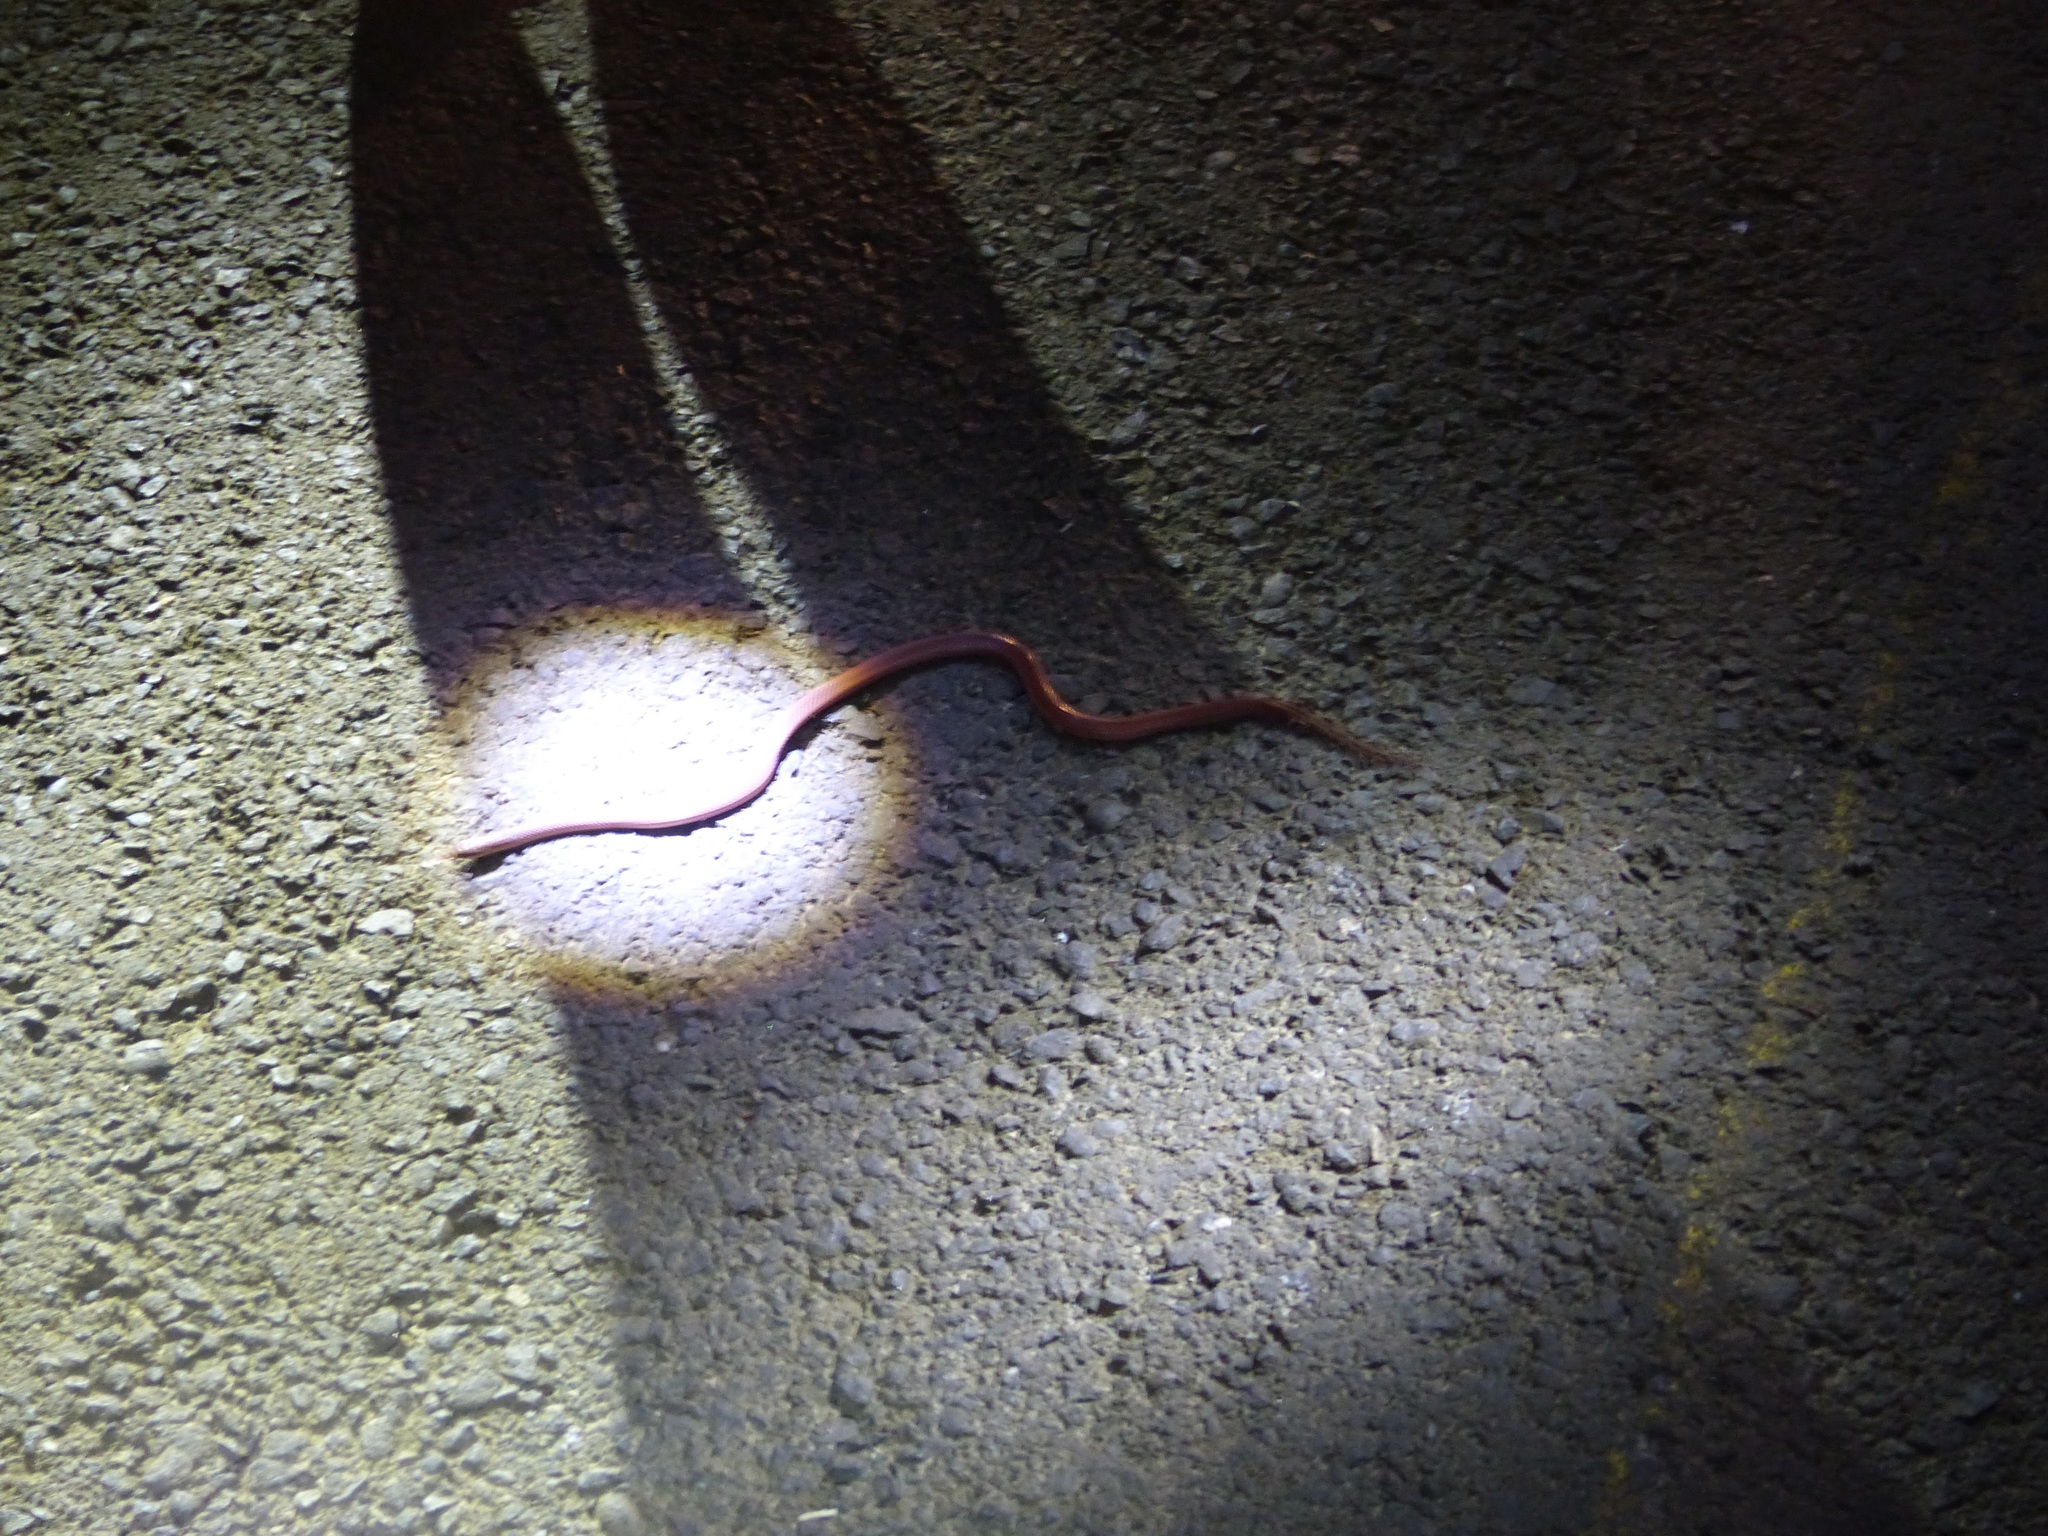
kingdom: Animalia
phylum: Chordata
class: Squamata
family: Colubridae
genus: Stenorrhina
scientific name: Stenorrhina freminvillei
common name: Blood snake
